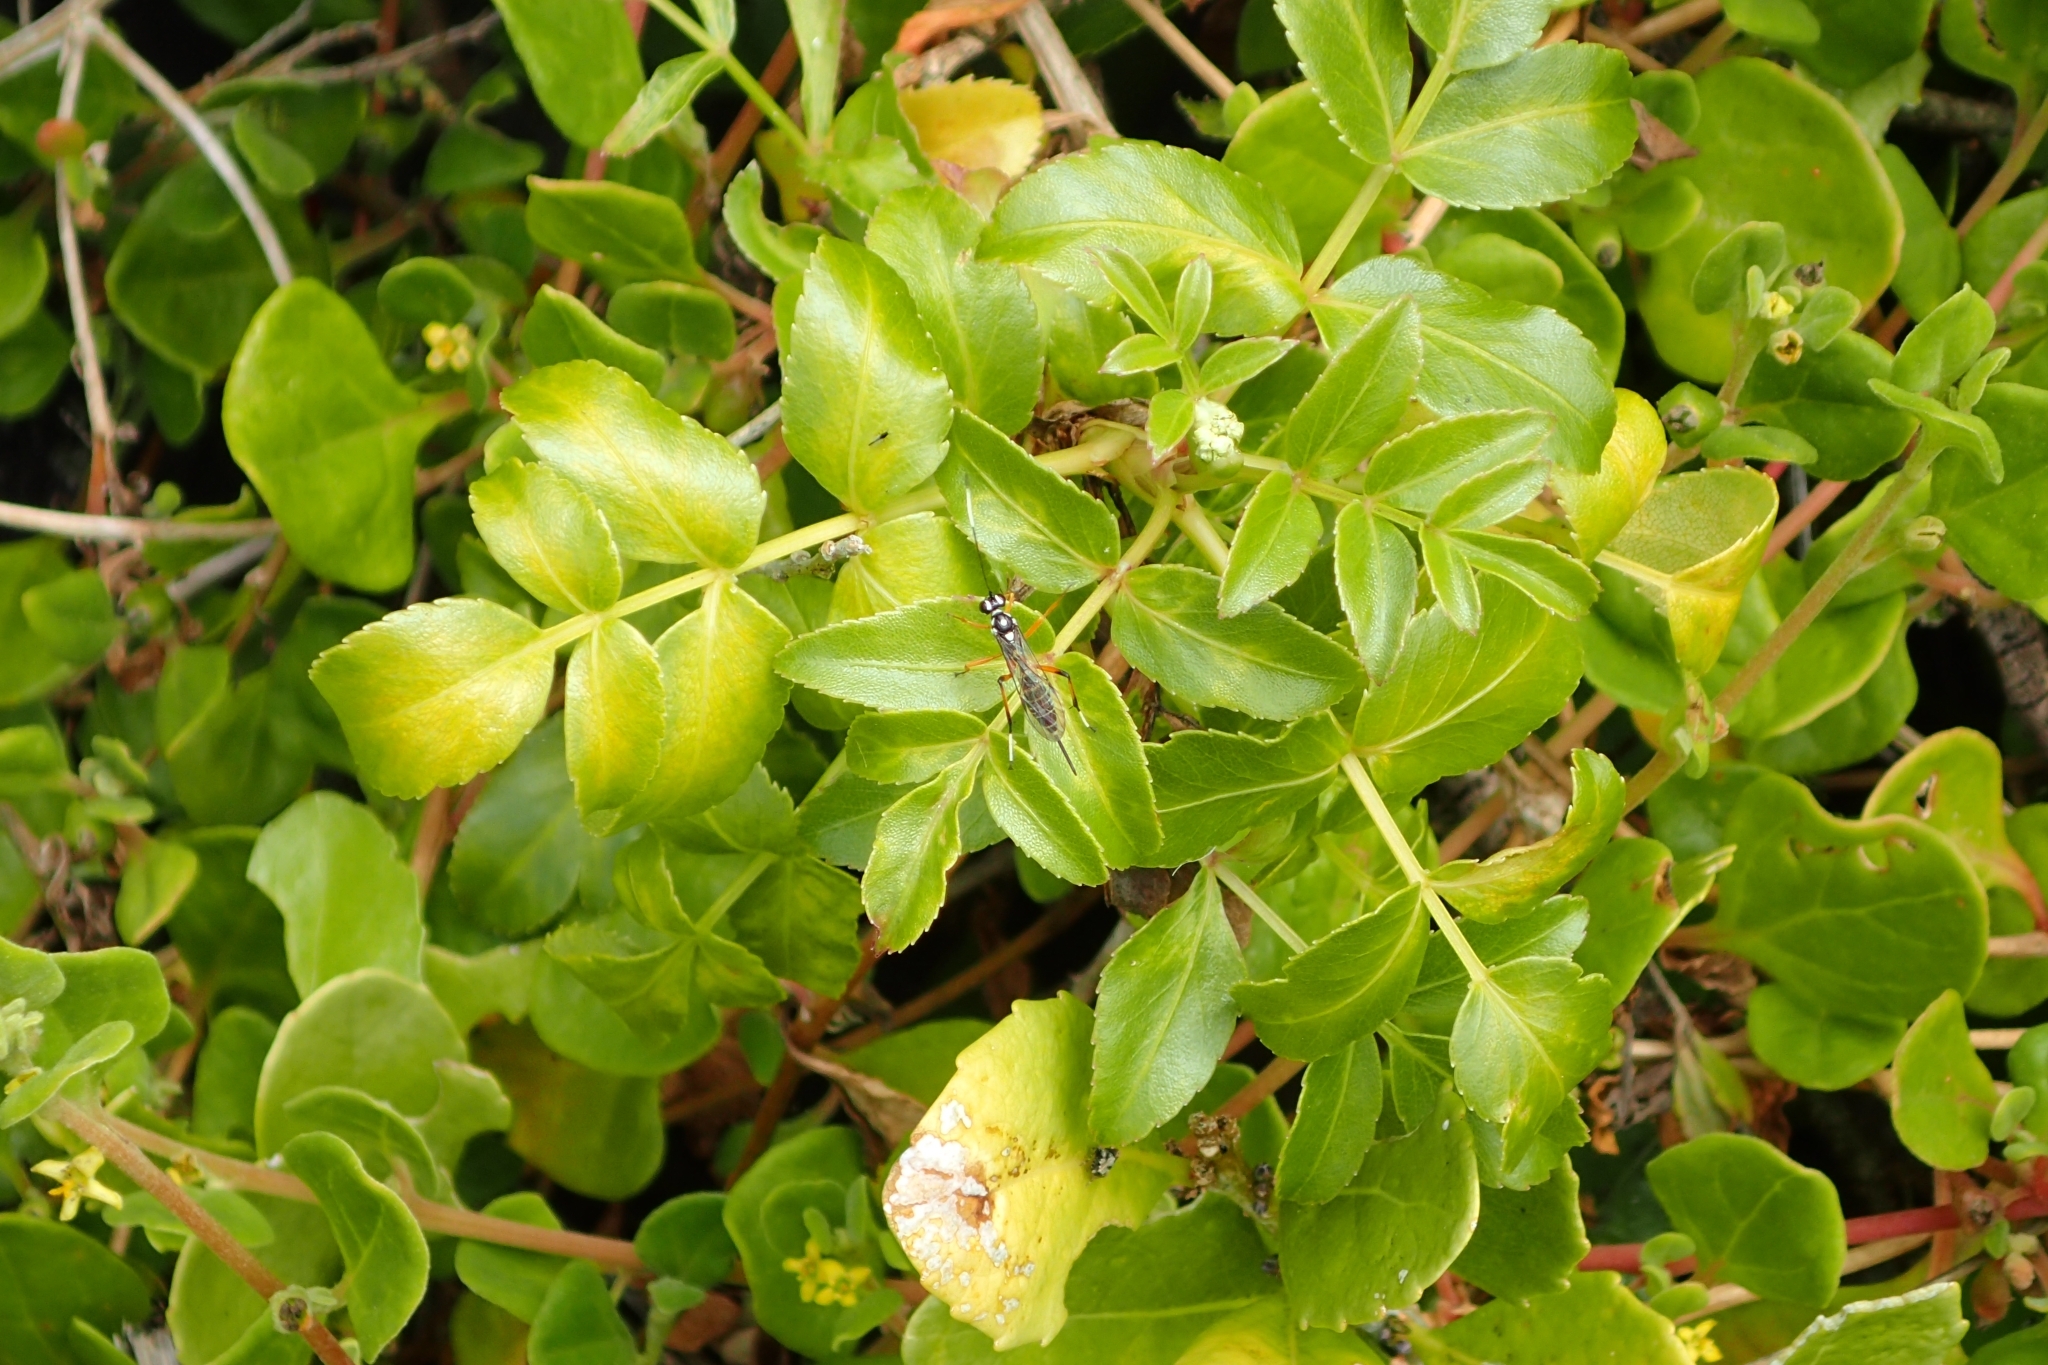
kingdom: Plantae
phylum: Tracheophyta
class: Magnoliopsida
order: Apiales
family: Apiaceae
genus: Scandia
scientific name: Scandia rosifolia
